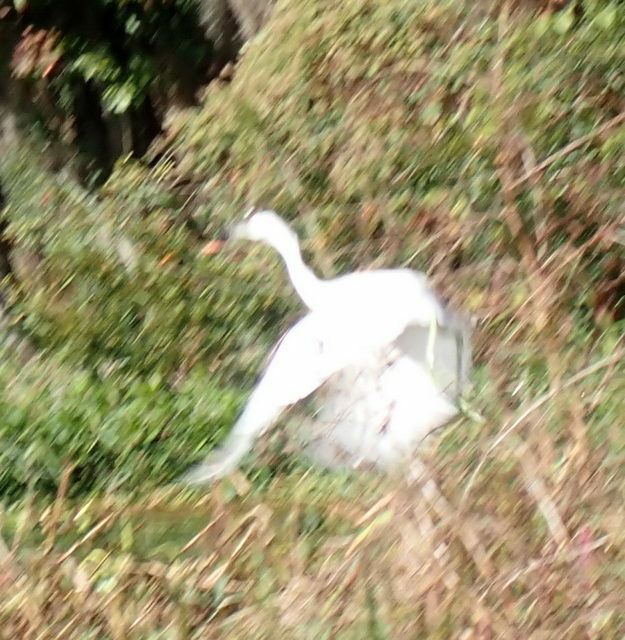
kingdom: Animalia
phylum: Chordata
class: Aves
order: Pelecaniformes
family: Ardeidae
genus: Egretta
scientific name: Egretta caerulea
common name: Little blue heron
